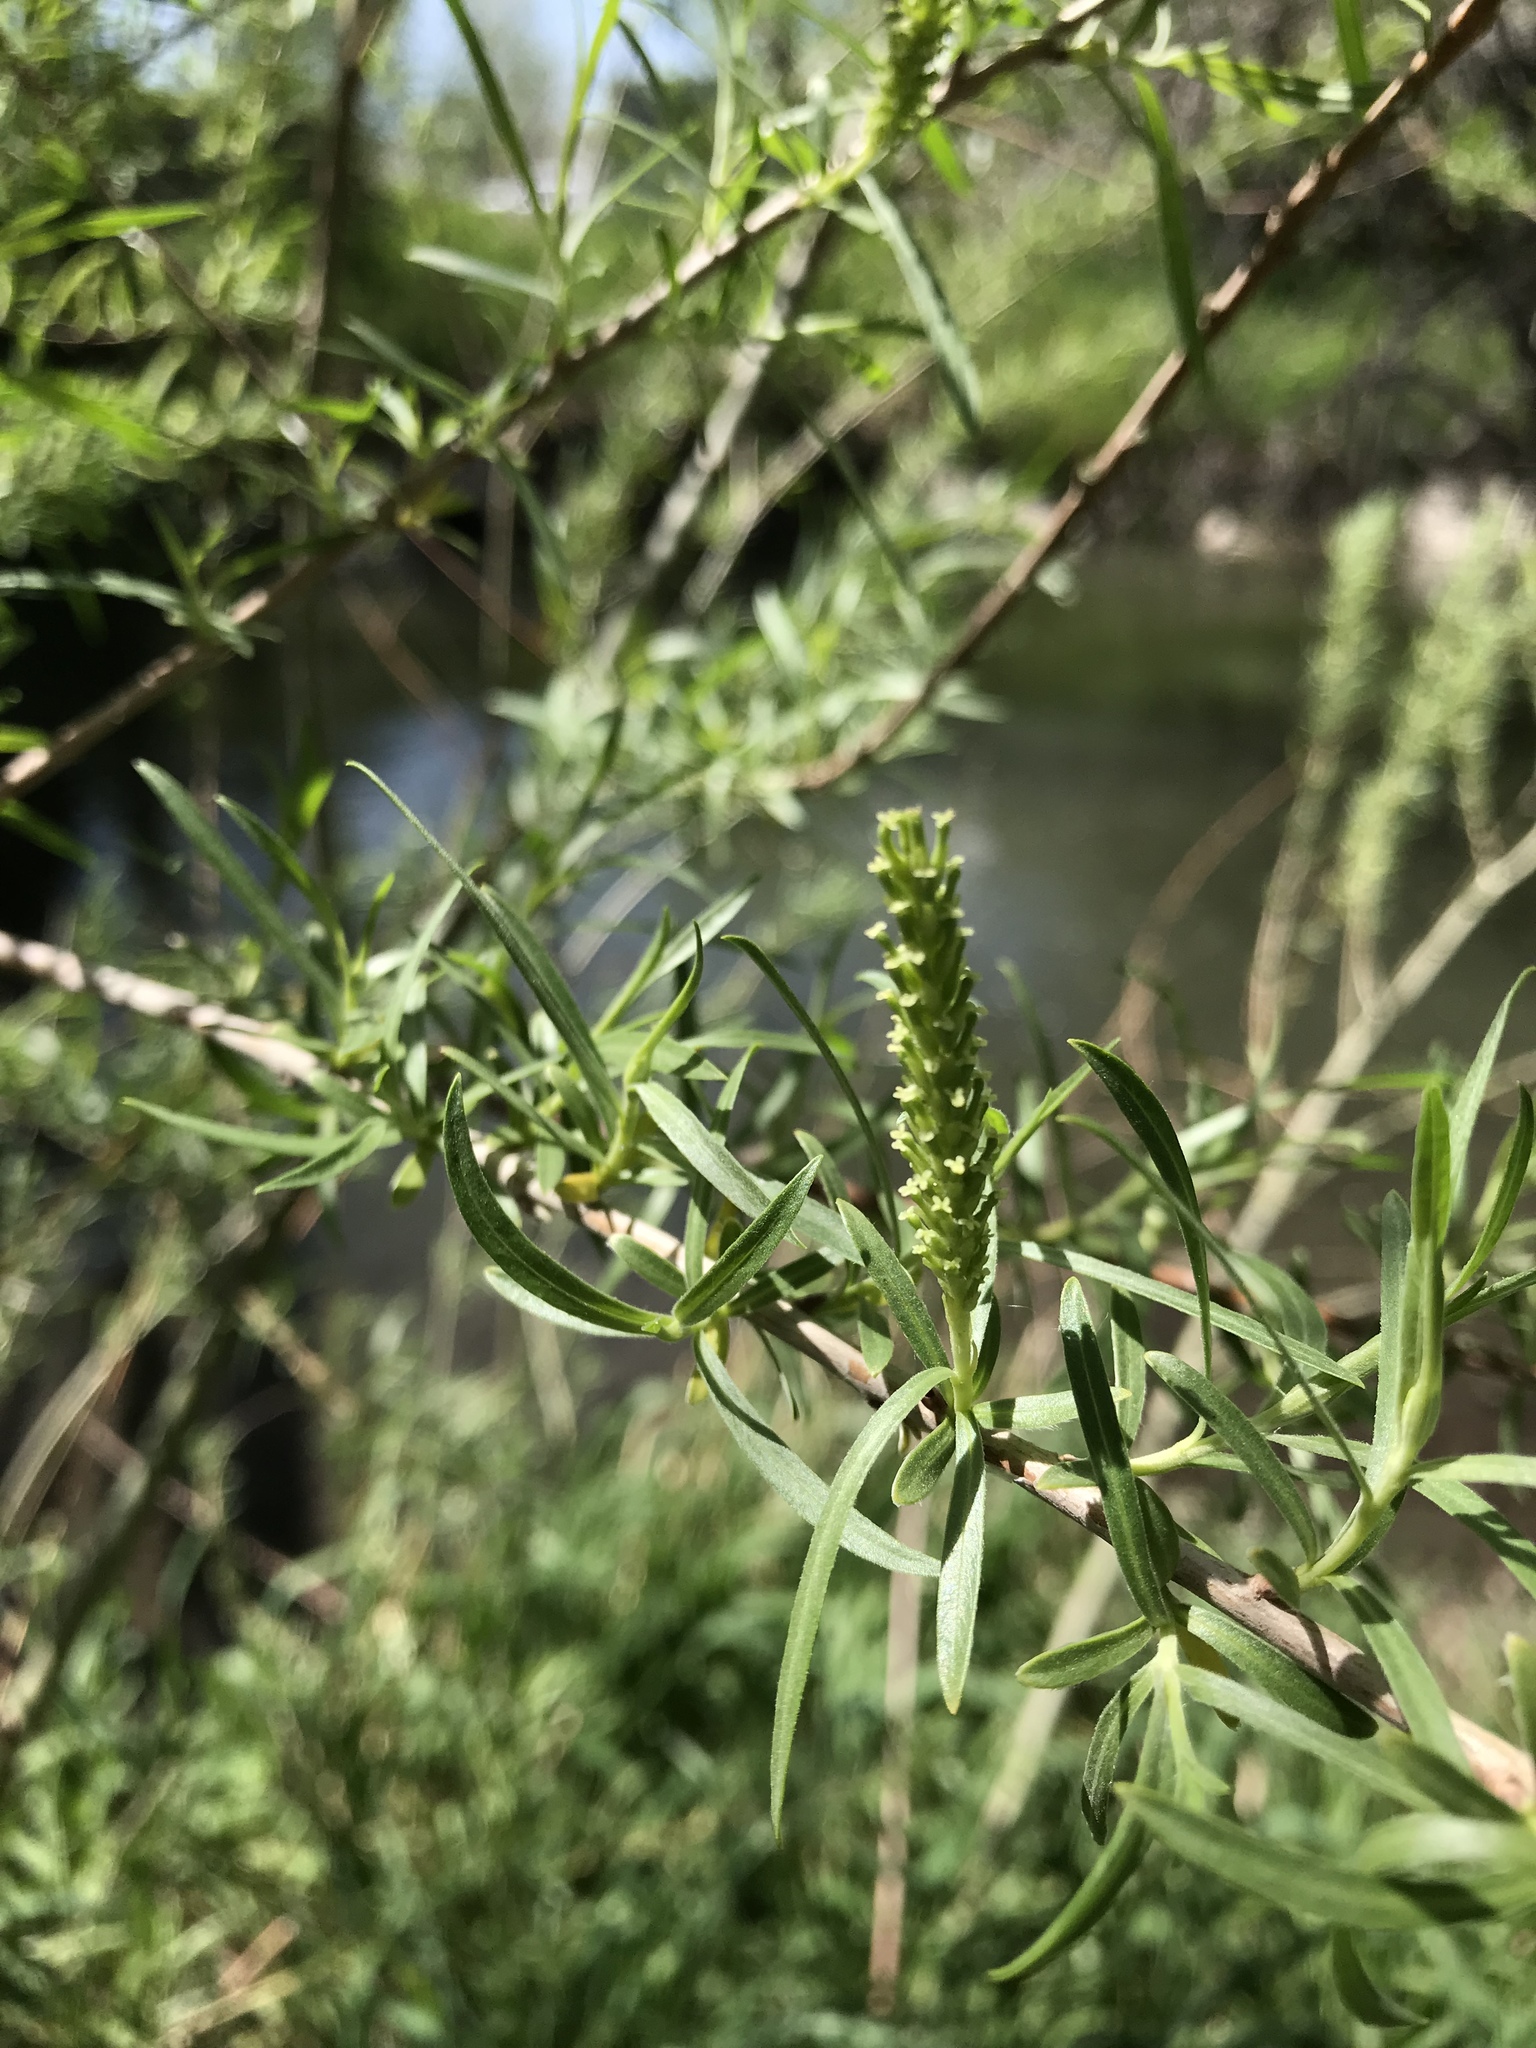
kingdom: Plantae
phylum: Tracheophyta
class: Magnoliopsida
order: Malpighiales
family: Salicaceae
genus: Salix
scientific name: Salix exigua
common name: Coyote willow
